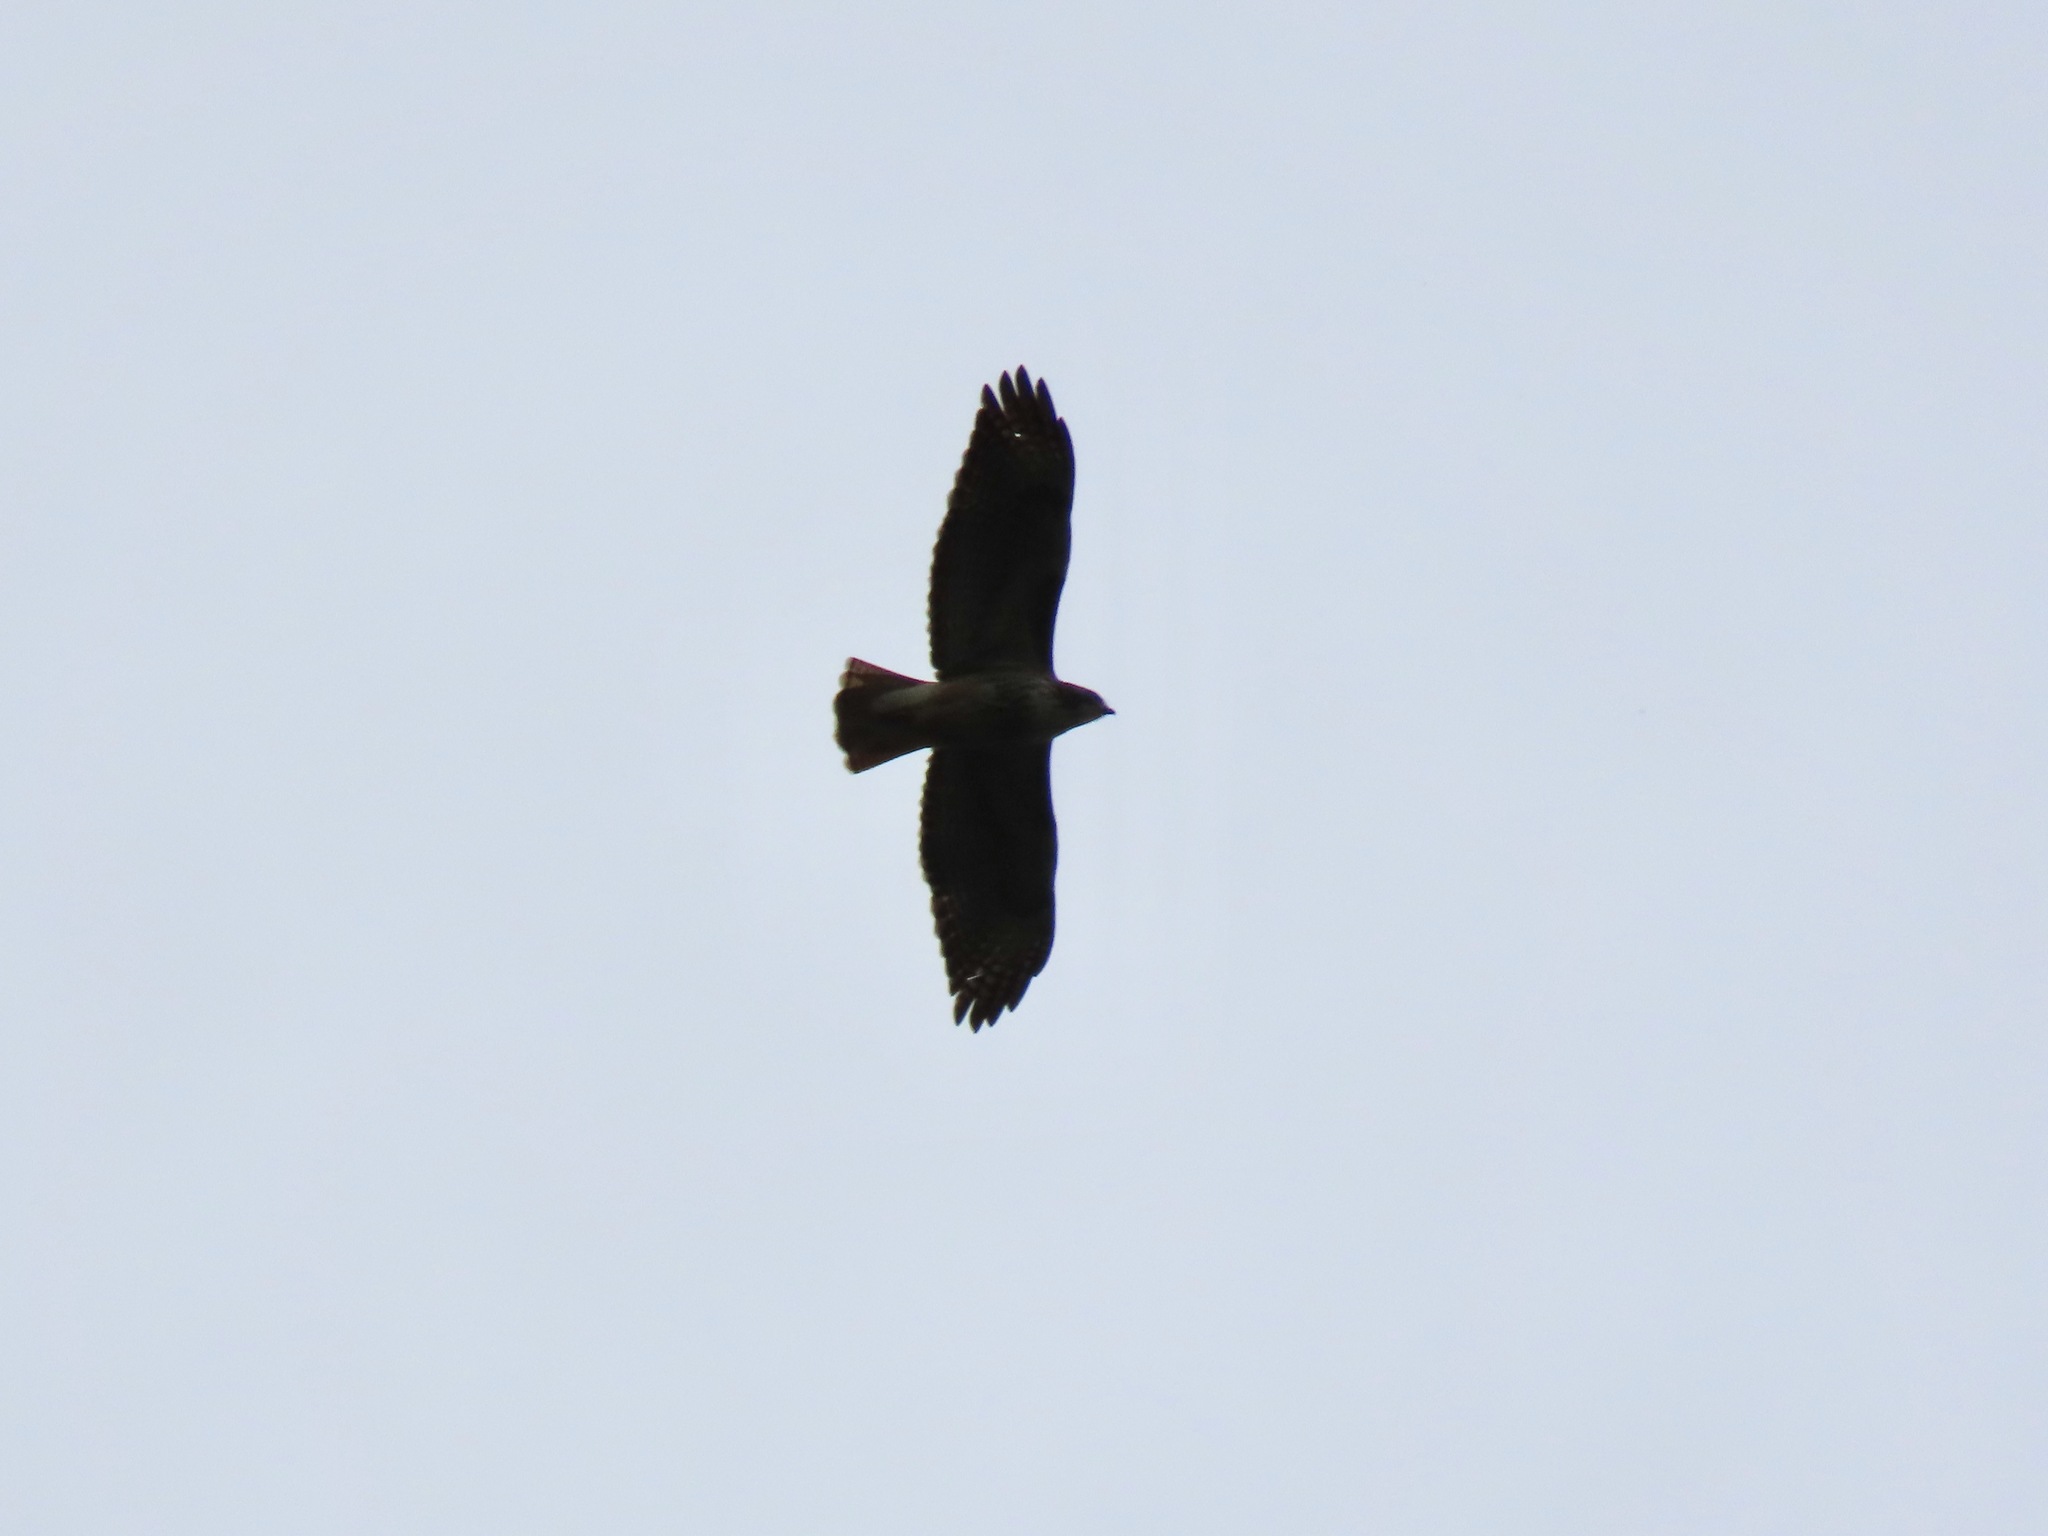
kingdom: Animalia
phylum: Chordata
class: Aves
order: Accipitriformes
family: Accipitridae
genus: Buteo
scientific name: Buteo jamaicensis
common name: Red-tailed hawk
